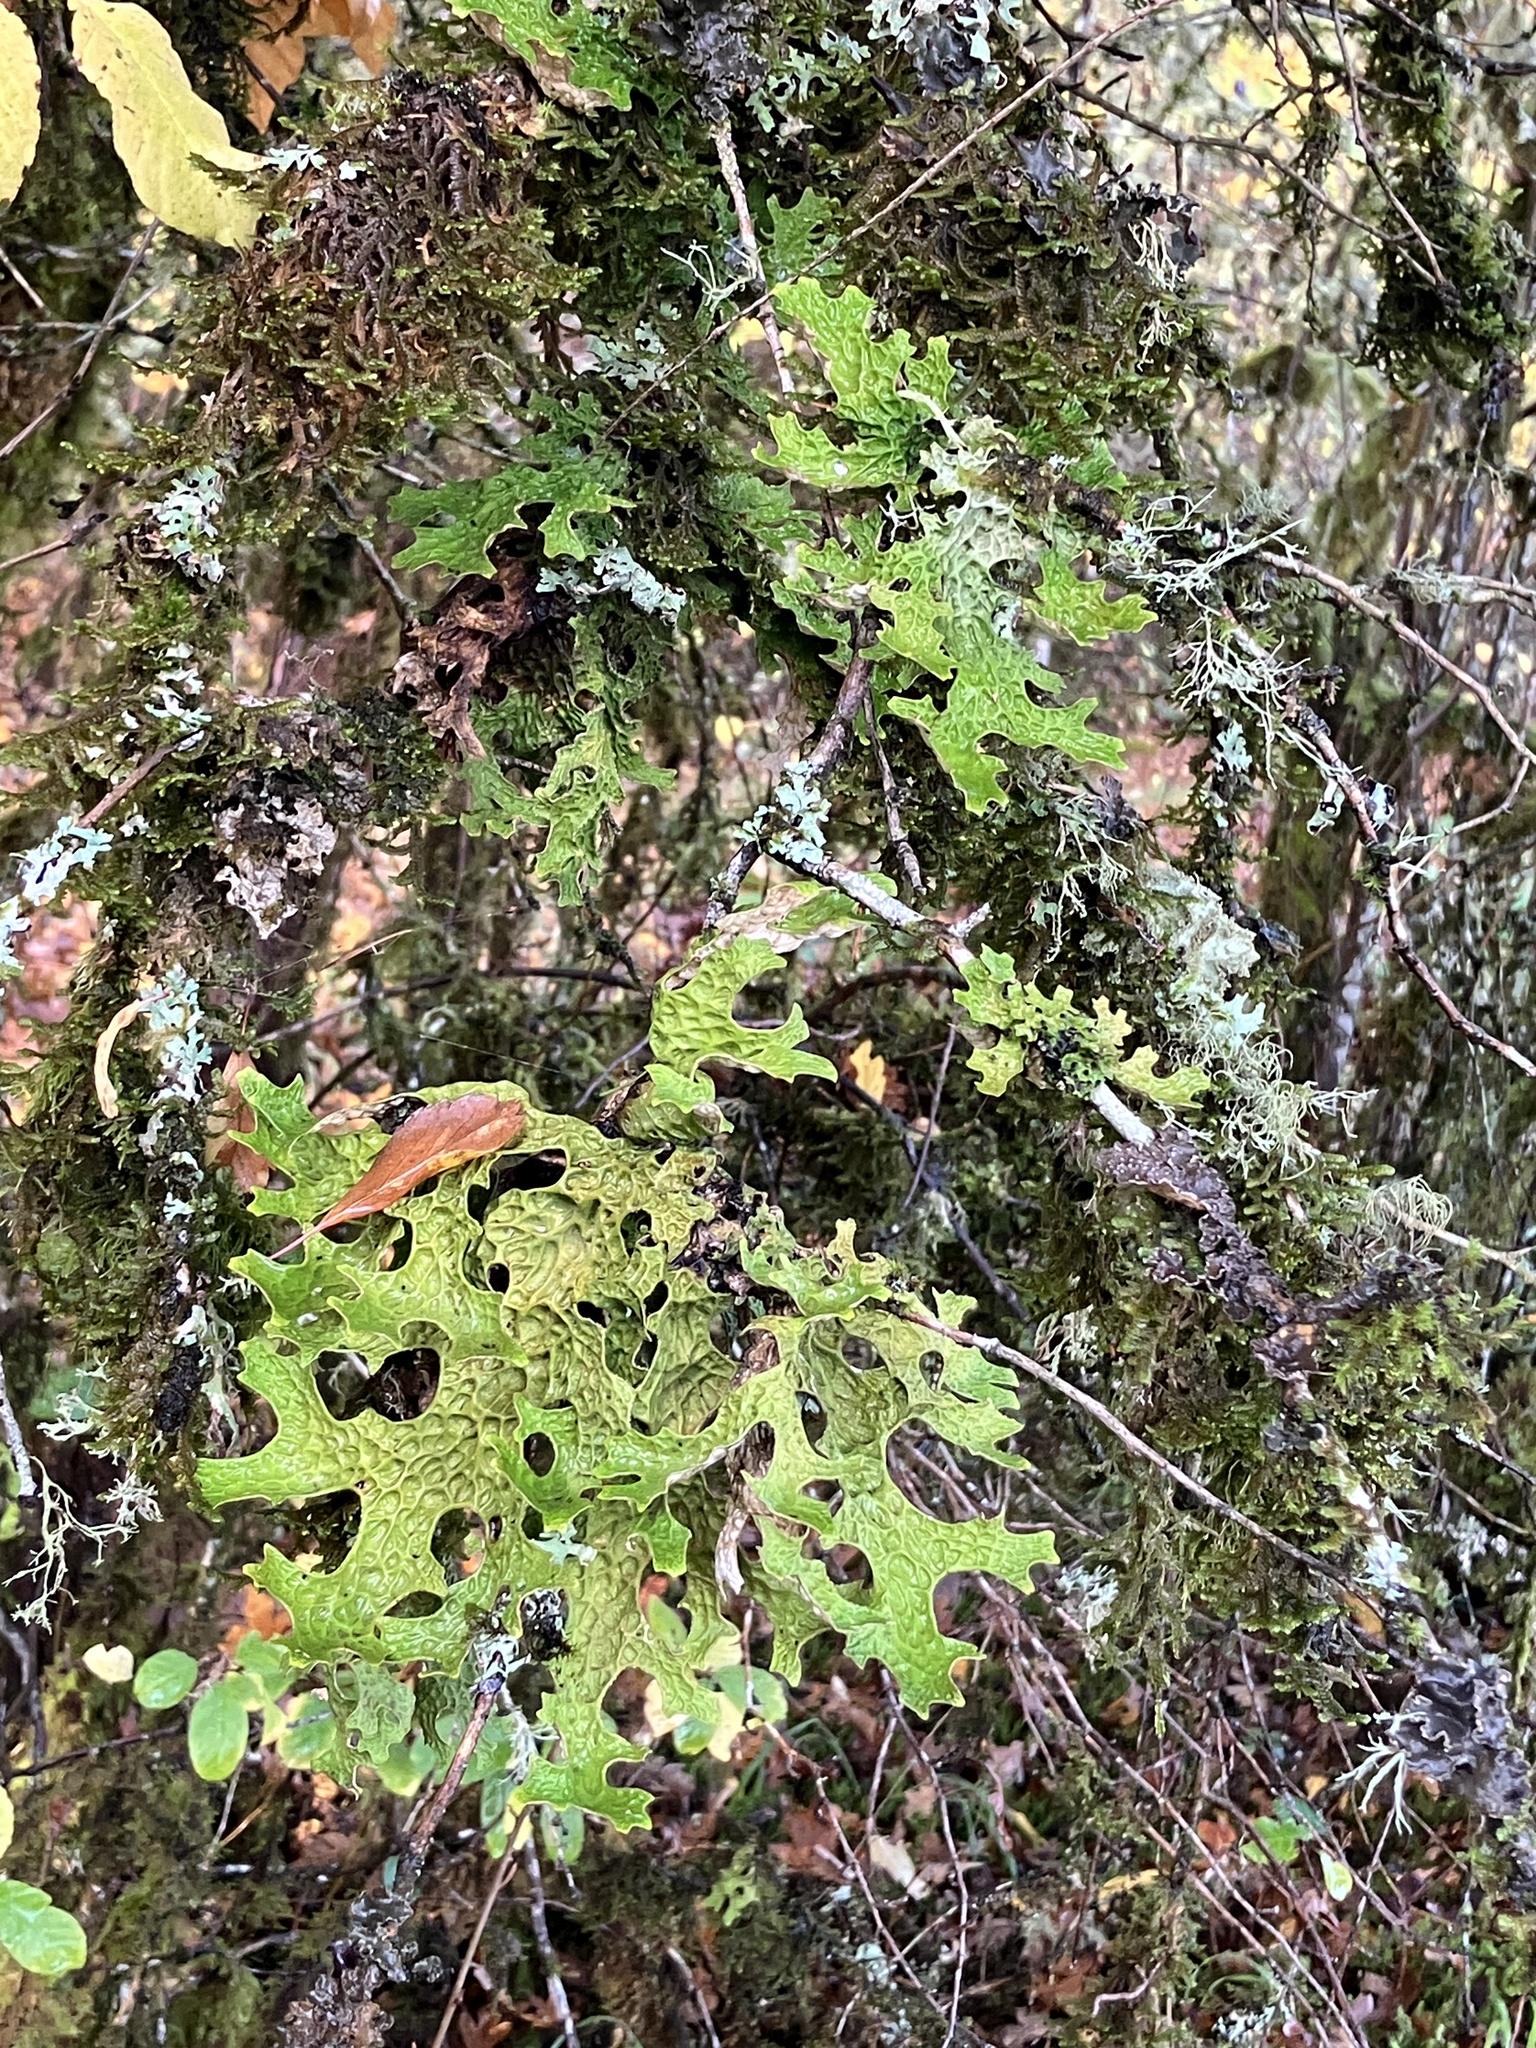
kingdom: Fungi
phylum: Ascomycota
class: Lecanoromycetes
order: Peltigerales
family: Lobariaceae
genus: Lobaria
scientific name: Lobaria pulmonaria
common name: Lungwort
